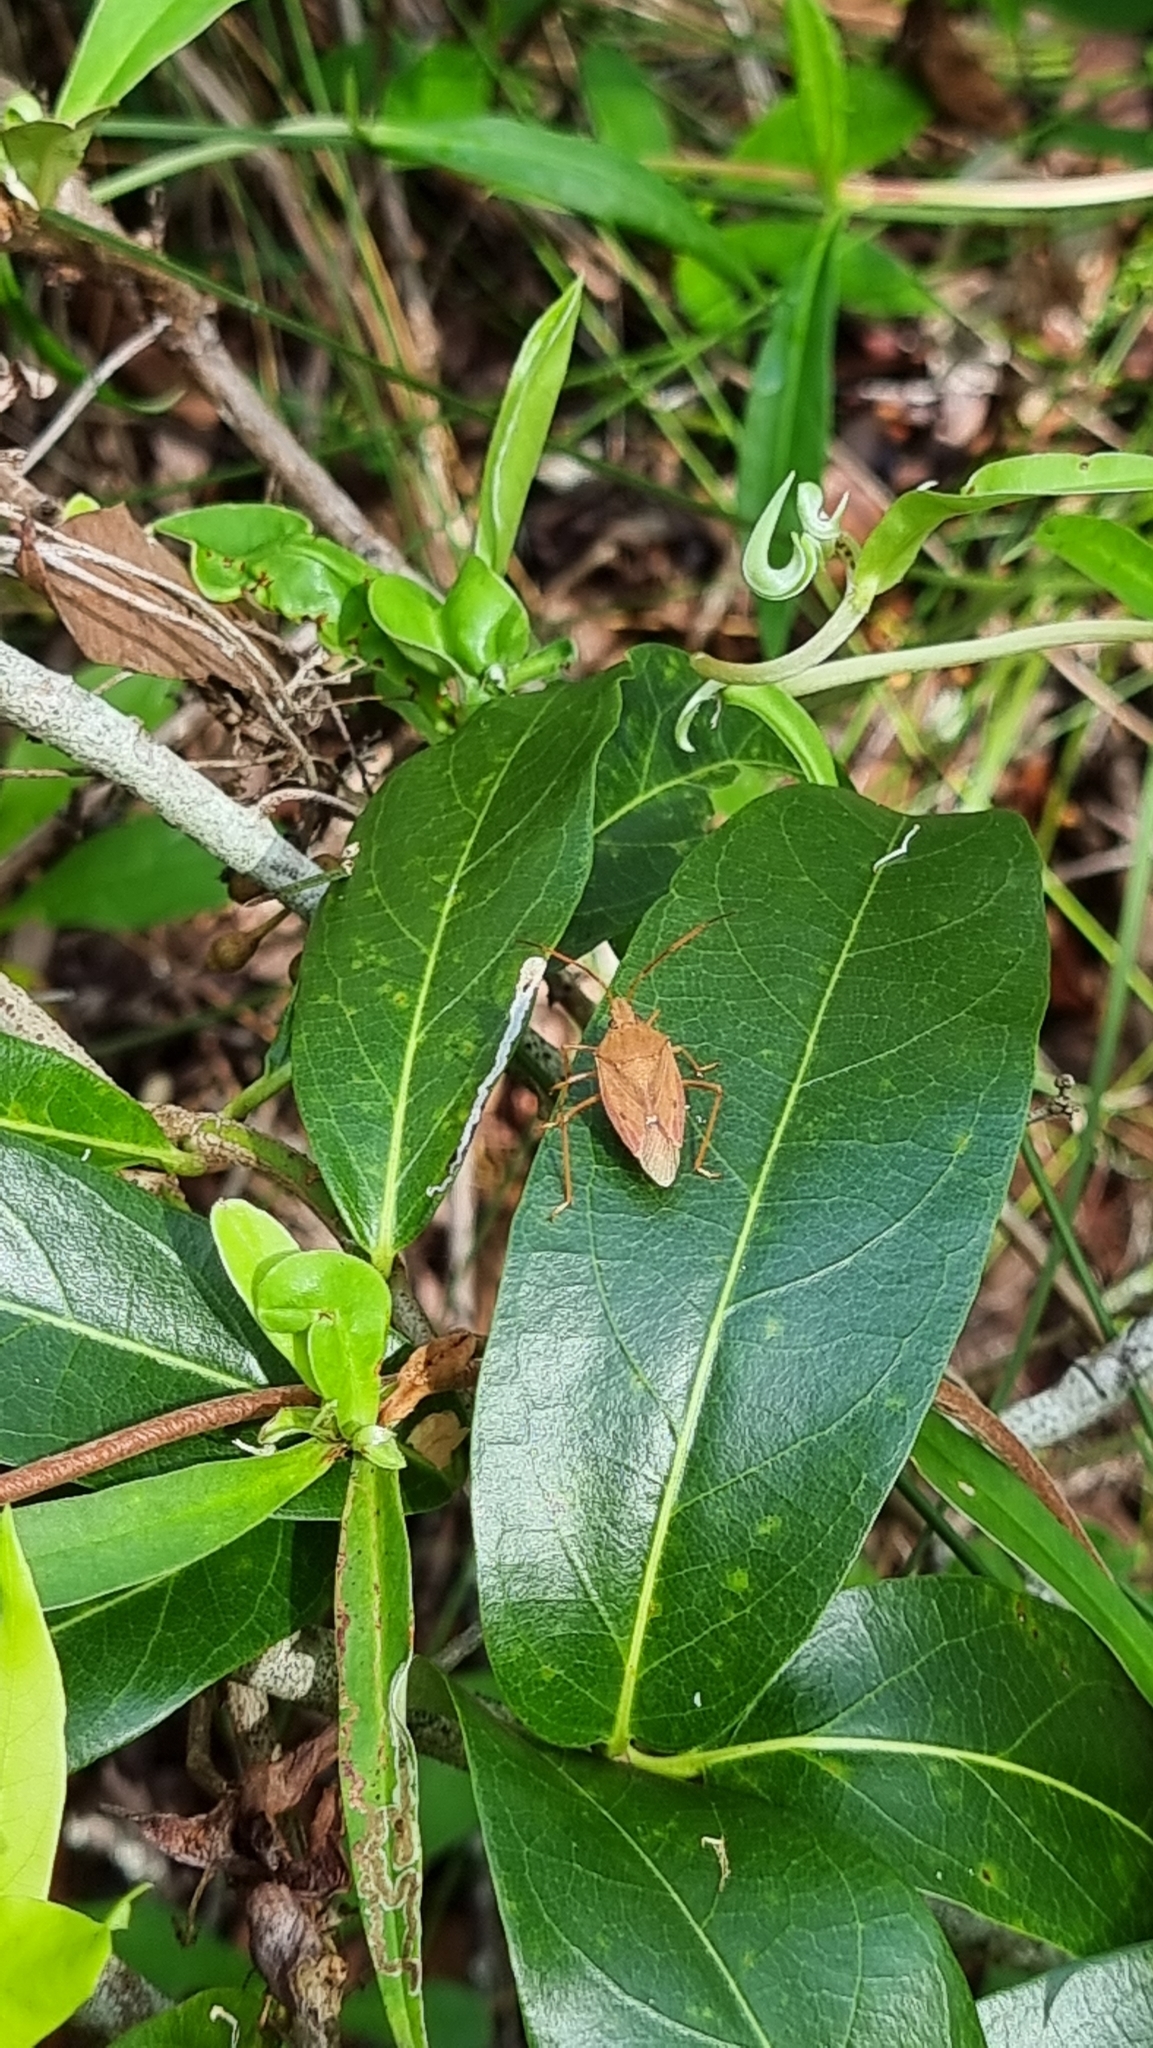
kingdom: Animalia
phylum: Arthropoda
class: Insecta
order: Hemiptera
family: Pentatomidae
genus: Poecilometis
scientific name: Poecilometis
